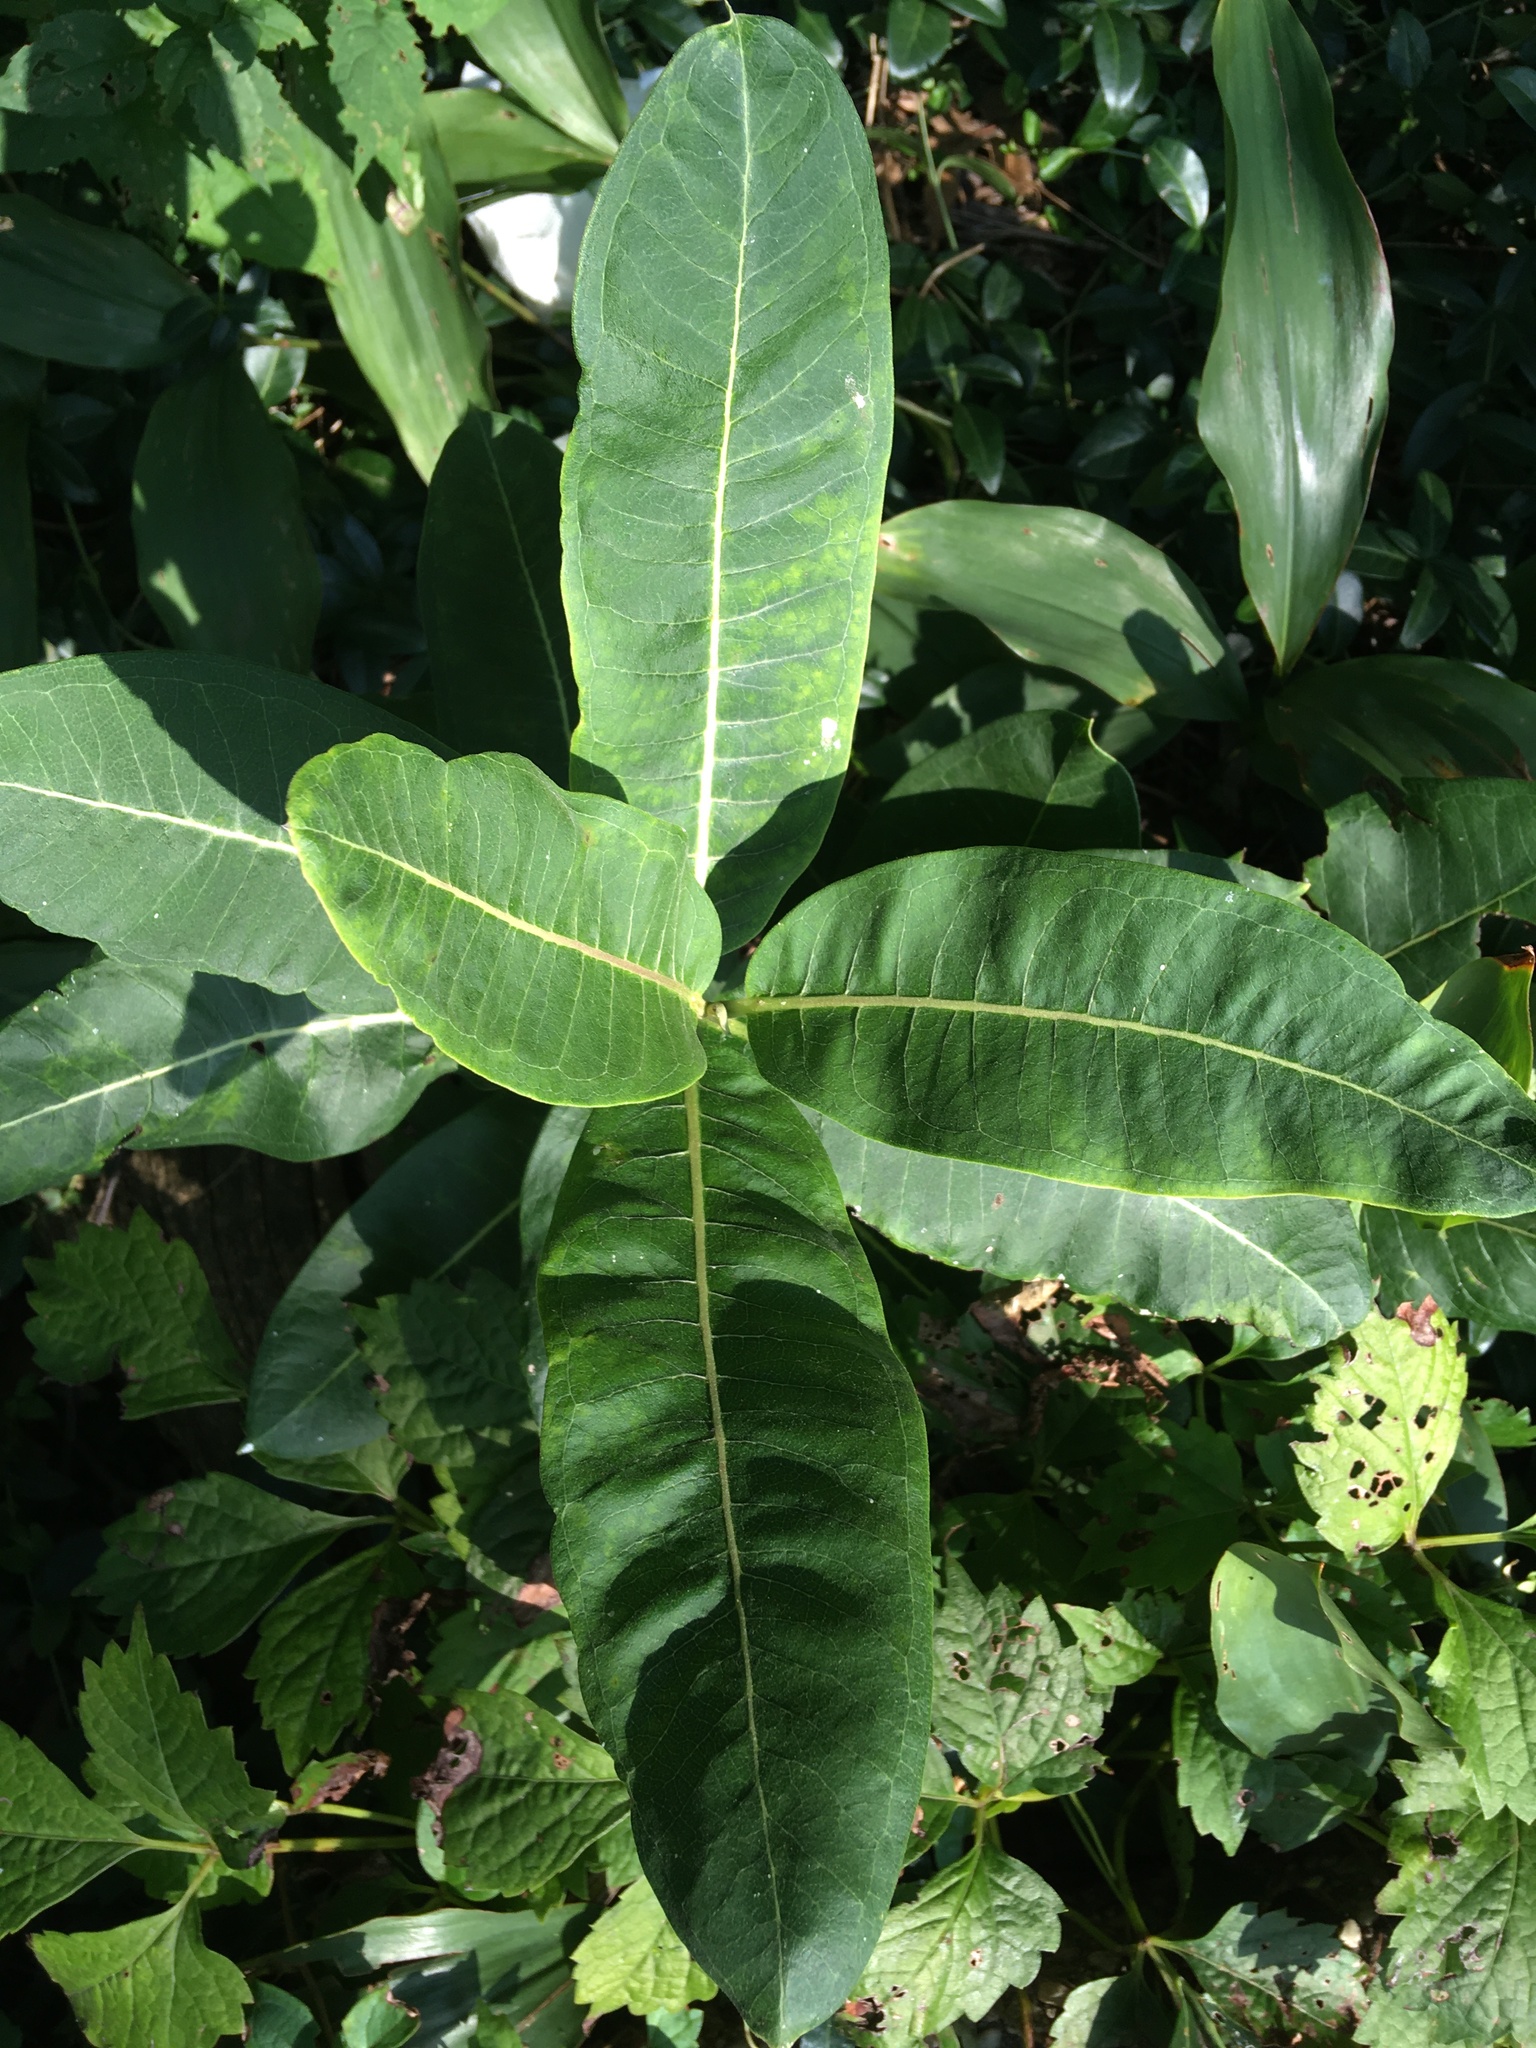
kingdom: Plantae
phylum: Tracheophyta
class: Magnoliopsida
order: Gentianales
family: Apocynaceae
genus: Asclepias
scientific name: Asclepias syriaca
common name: Common milkweed
